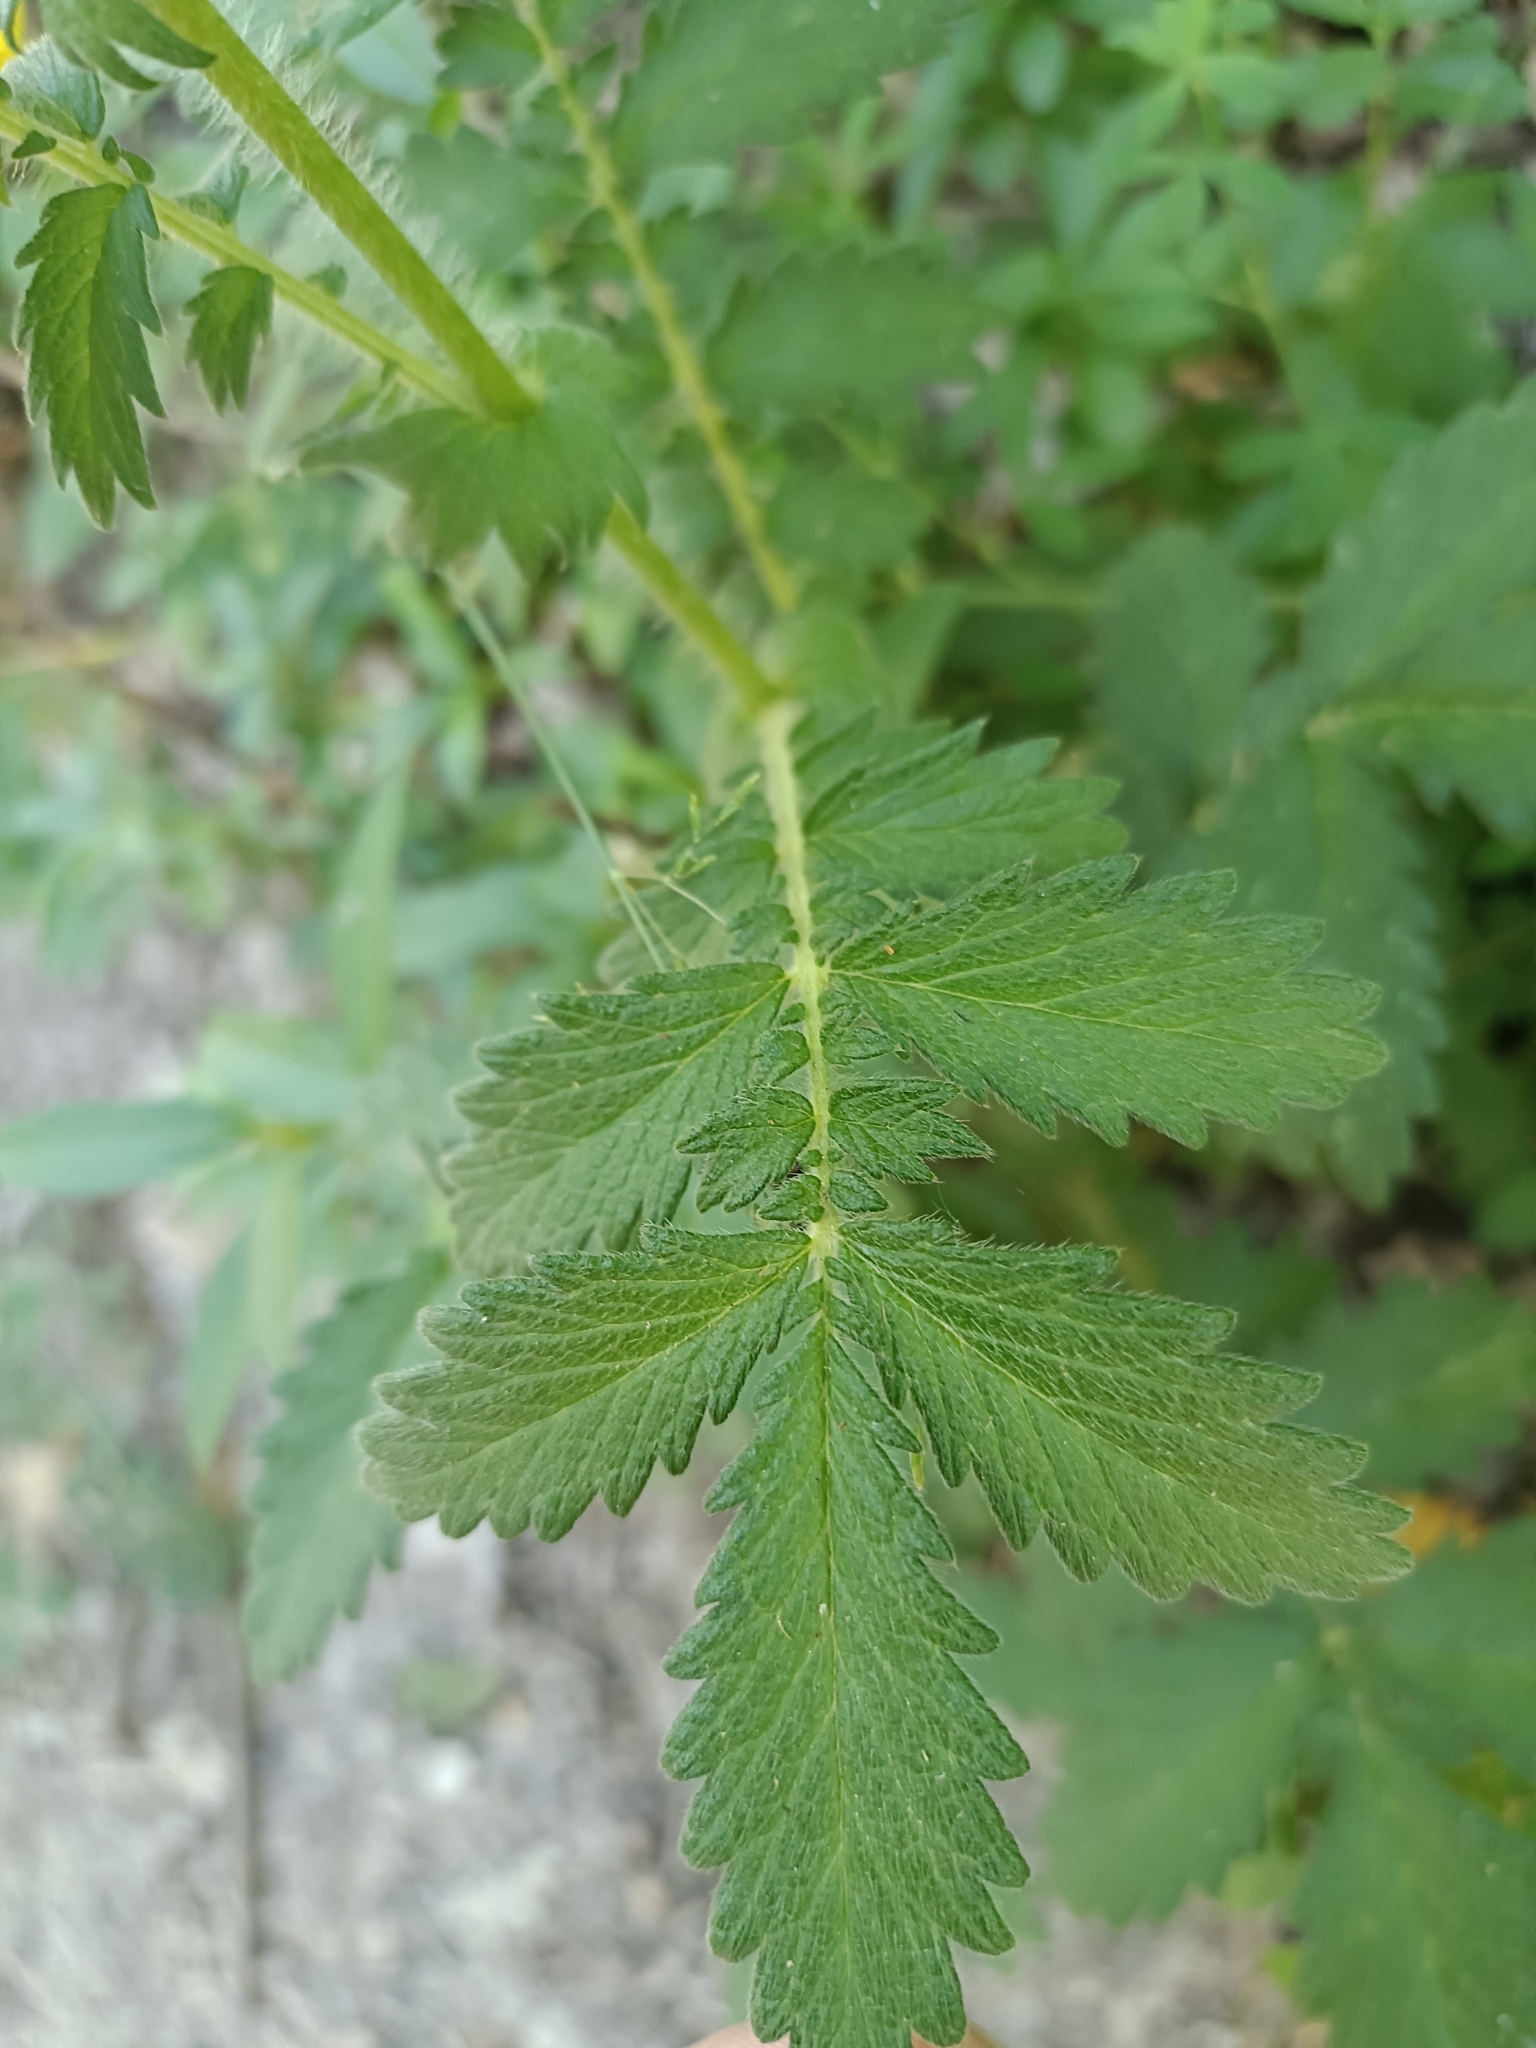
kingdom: Plantae
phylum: Tracheophyta
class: Magnoliopsida
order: Rosales
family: Rosaceae
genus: Agrimonia
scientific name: Agrimonia eupatoria
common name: Agrimony
